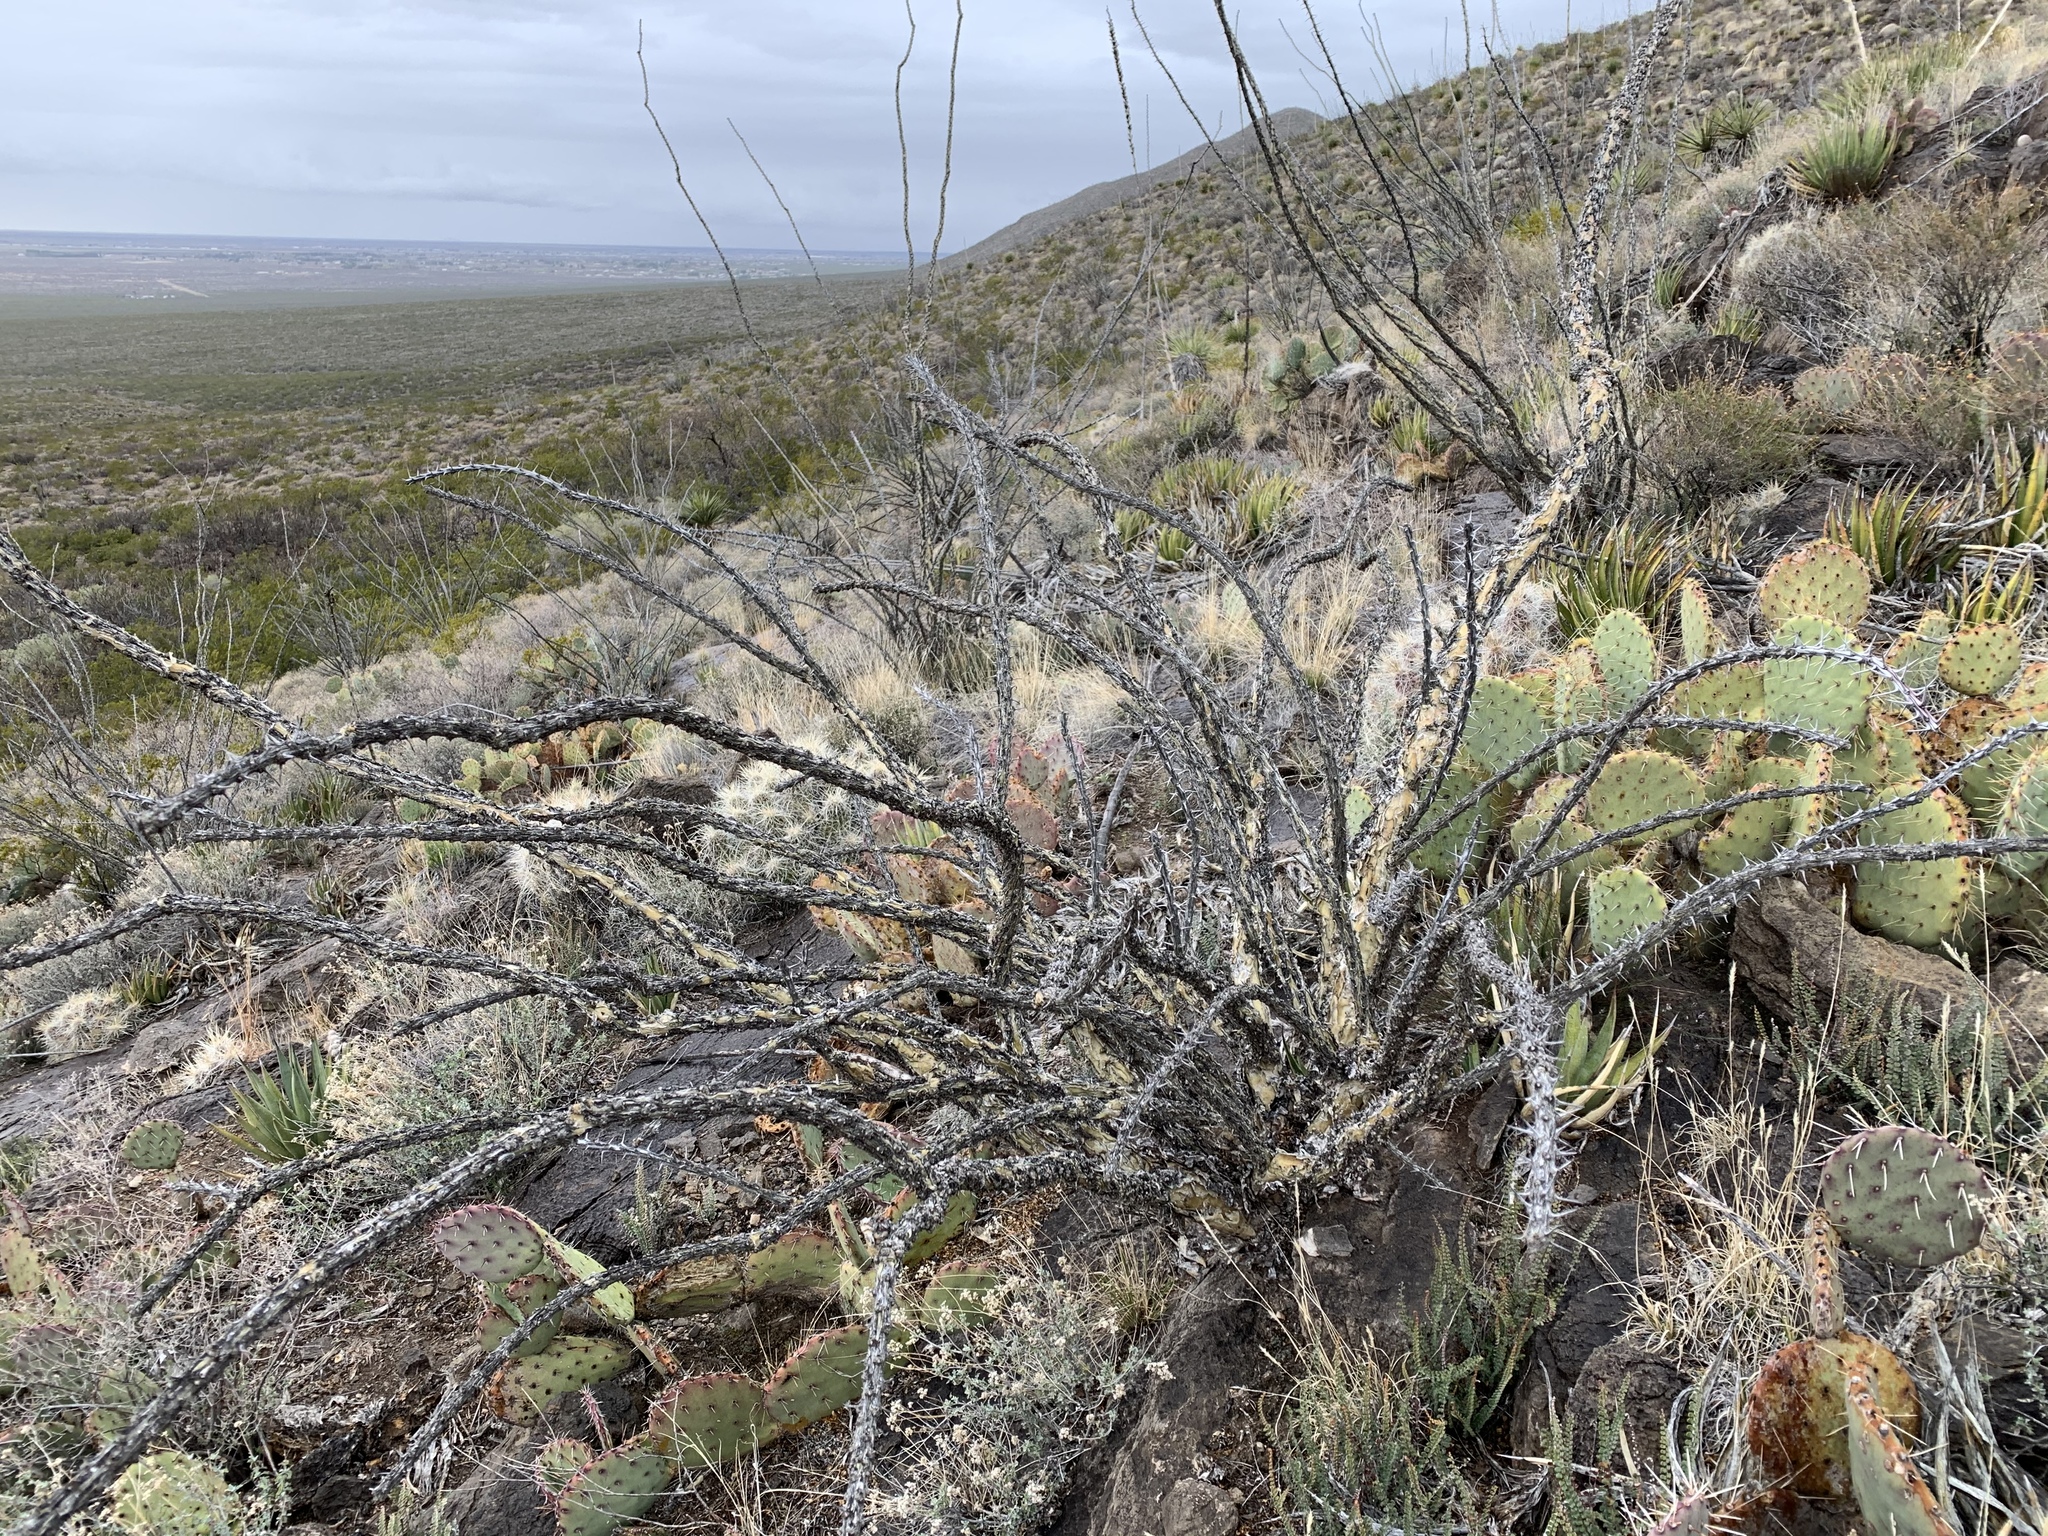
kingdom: Plantae
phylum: Tracheophyta
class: Magnoliopsida
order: Ericales
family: Fouquieriaceae
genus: Fouquieria
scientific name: Fouquieria splendens
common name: Vine-cactus
